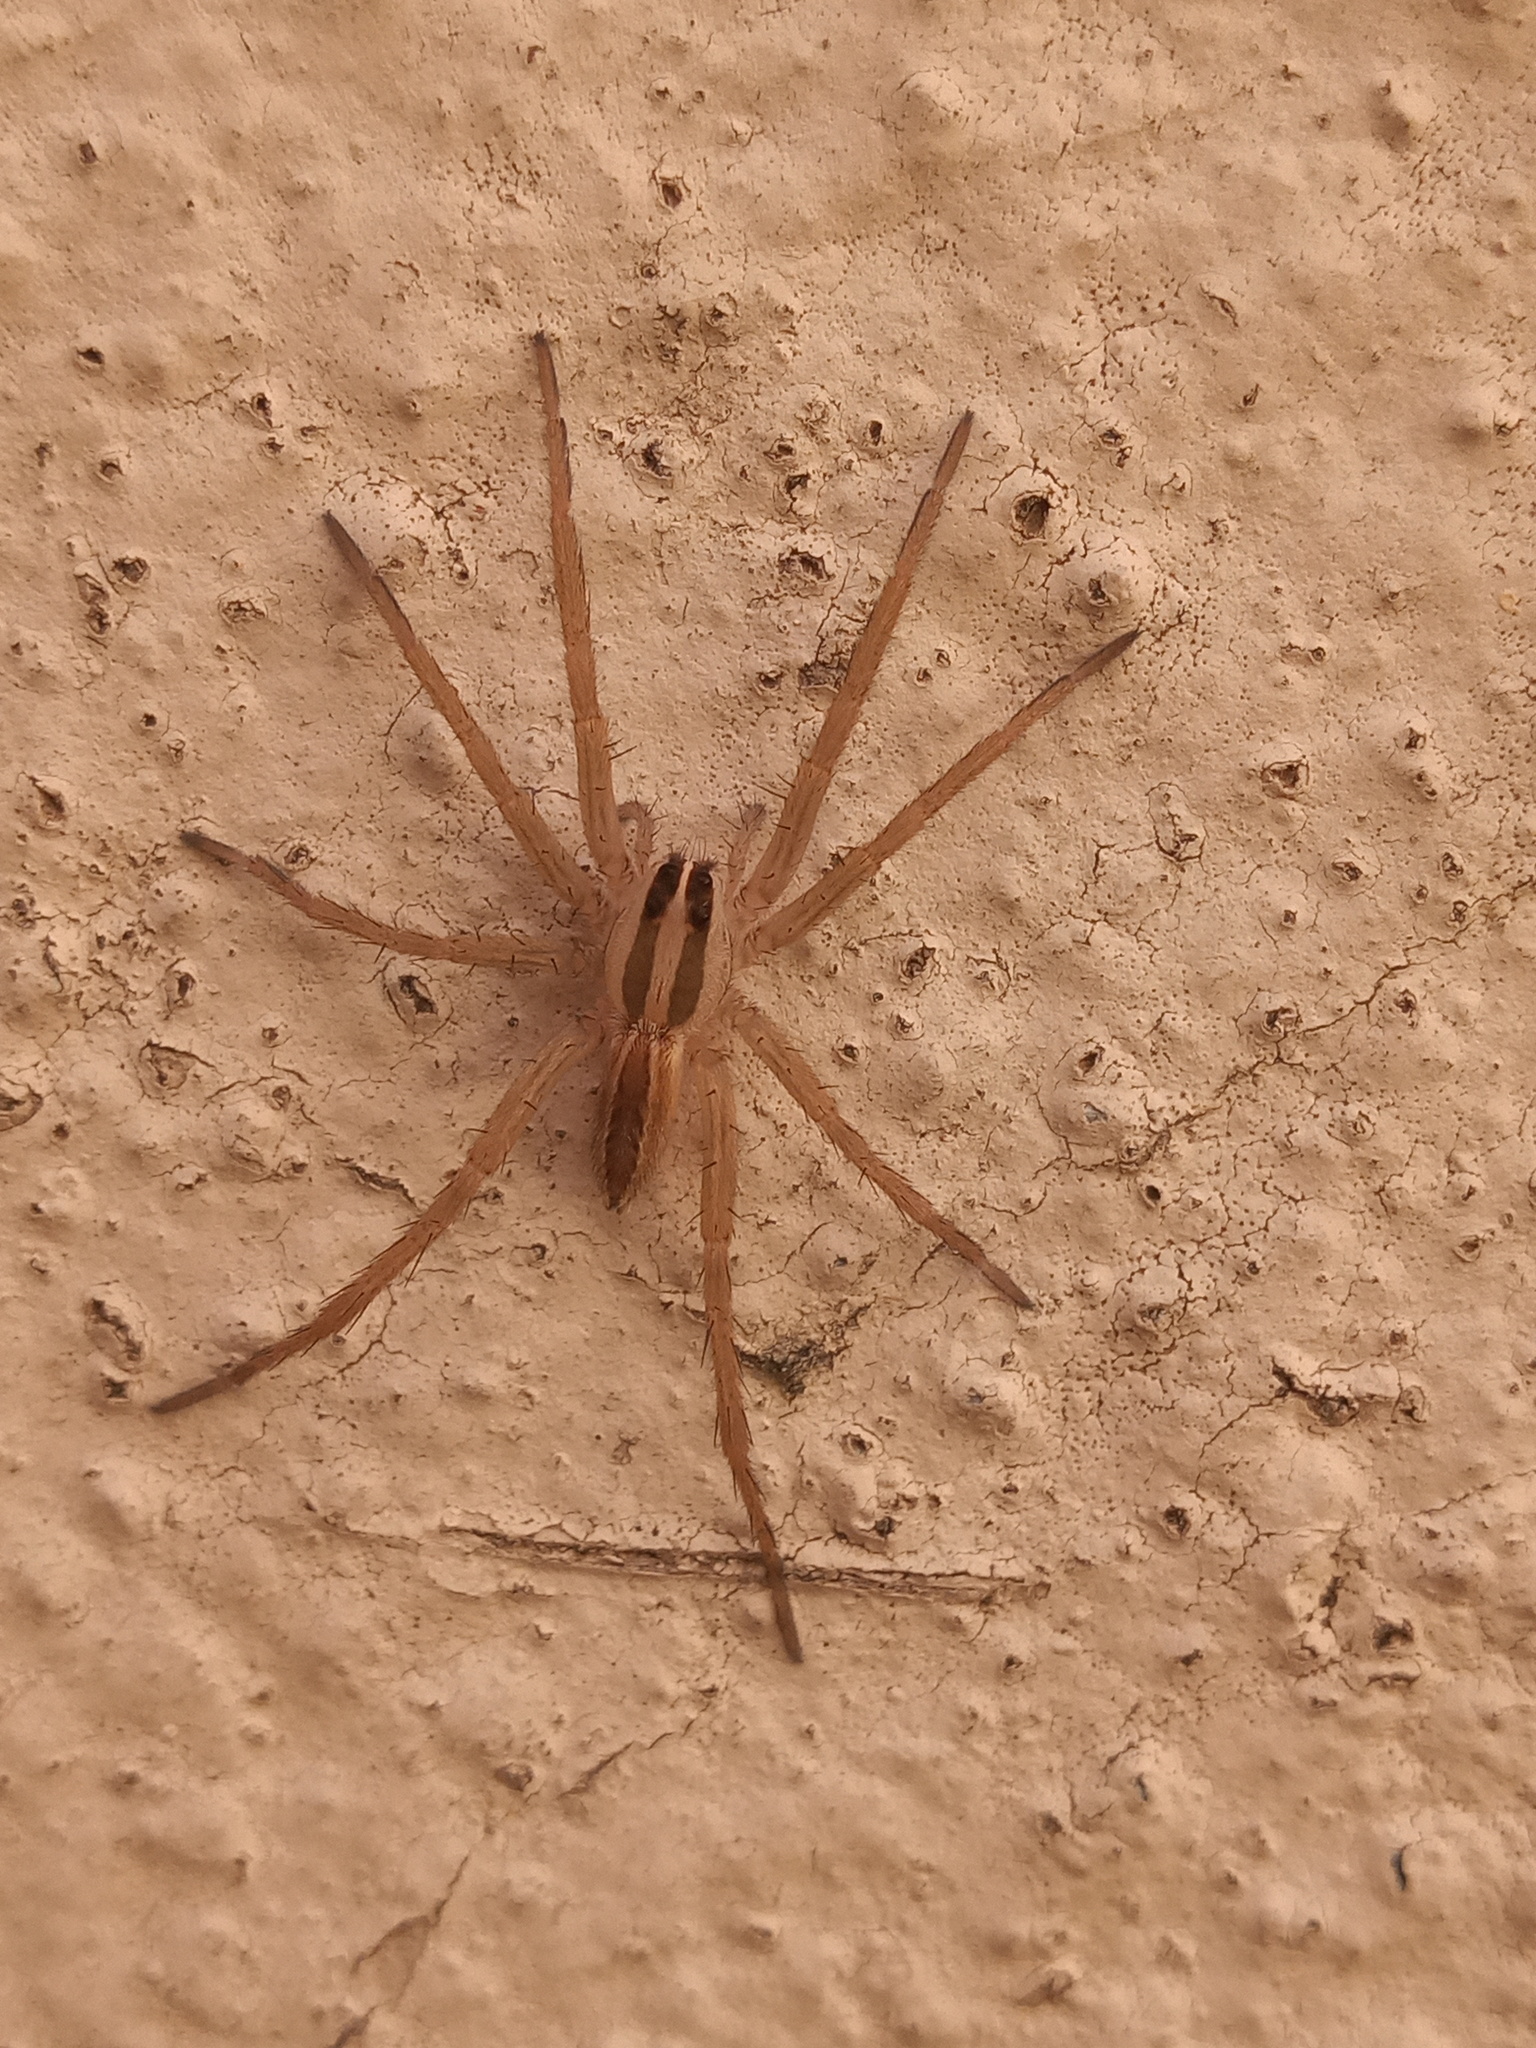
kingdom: Animalia
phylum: Arthropoda
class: Arachnida
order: Araneae
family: Lycosidae
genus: Rabidosa
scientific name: Rabidosa rabida
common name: Rabid wolf spider
